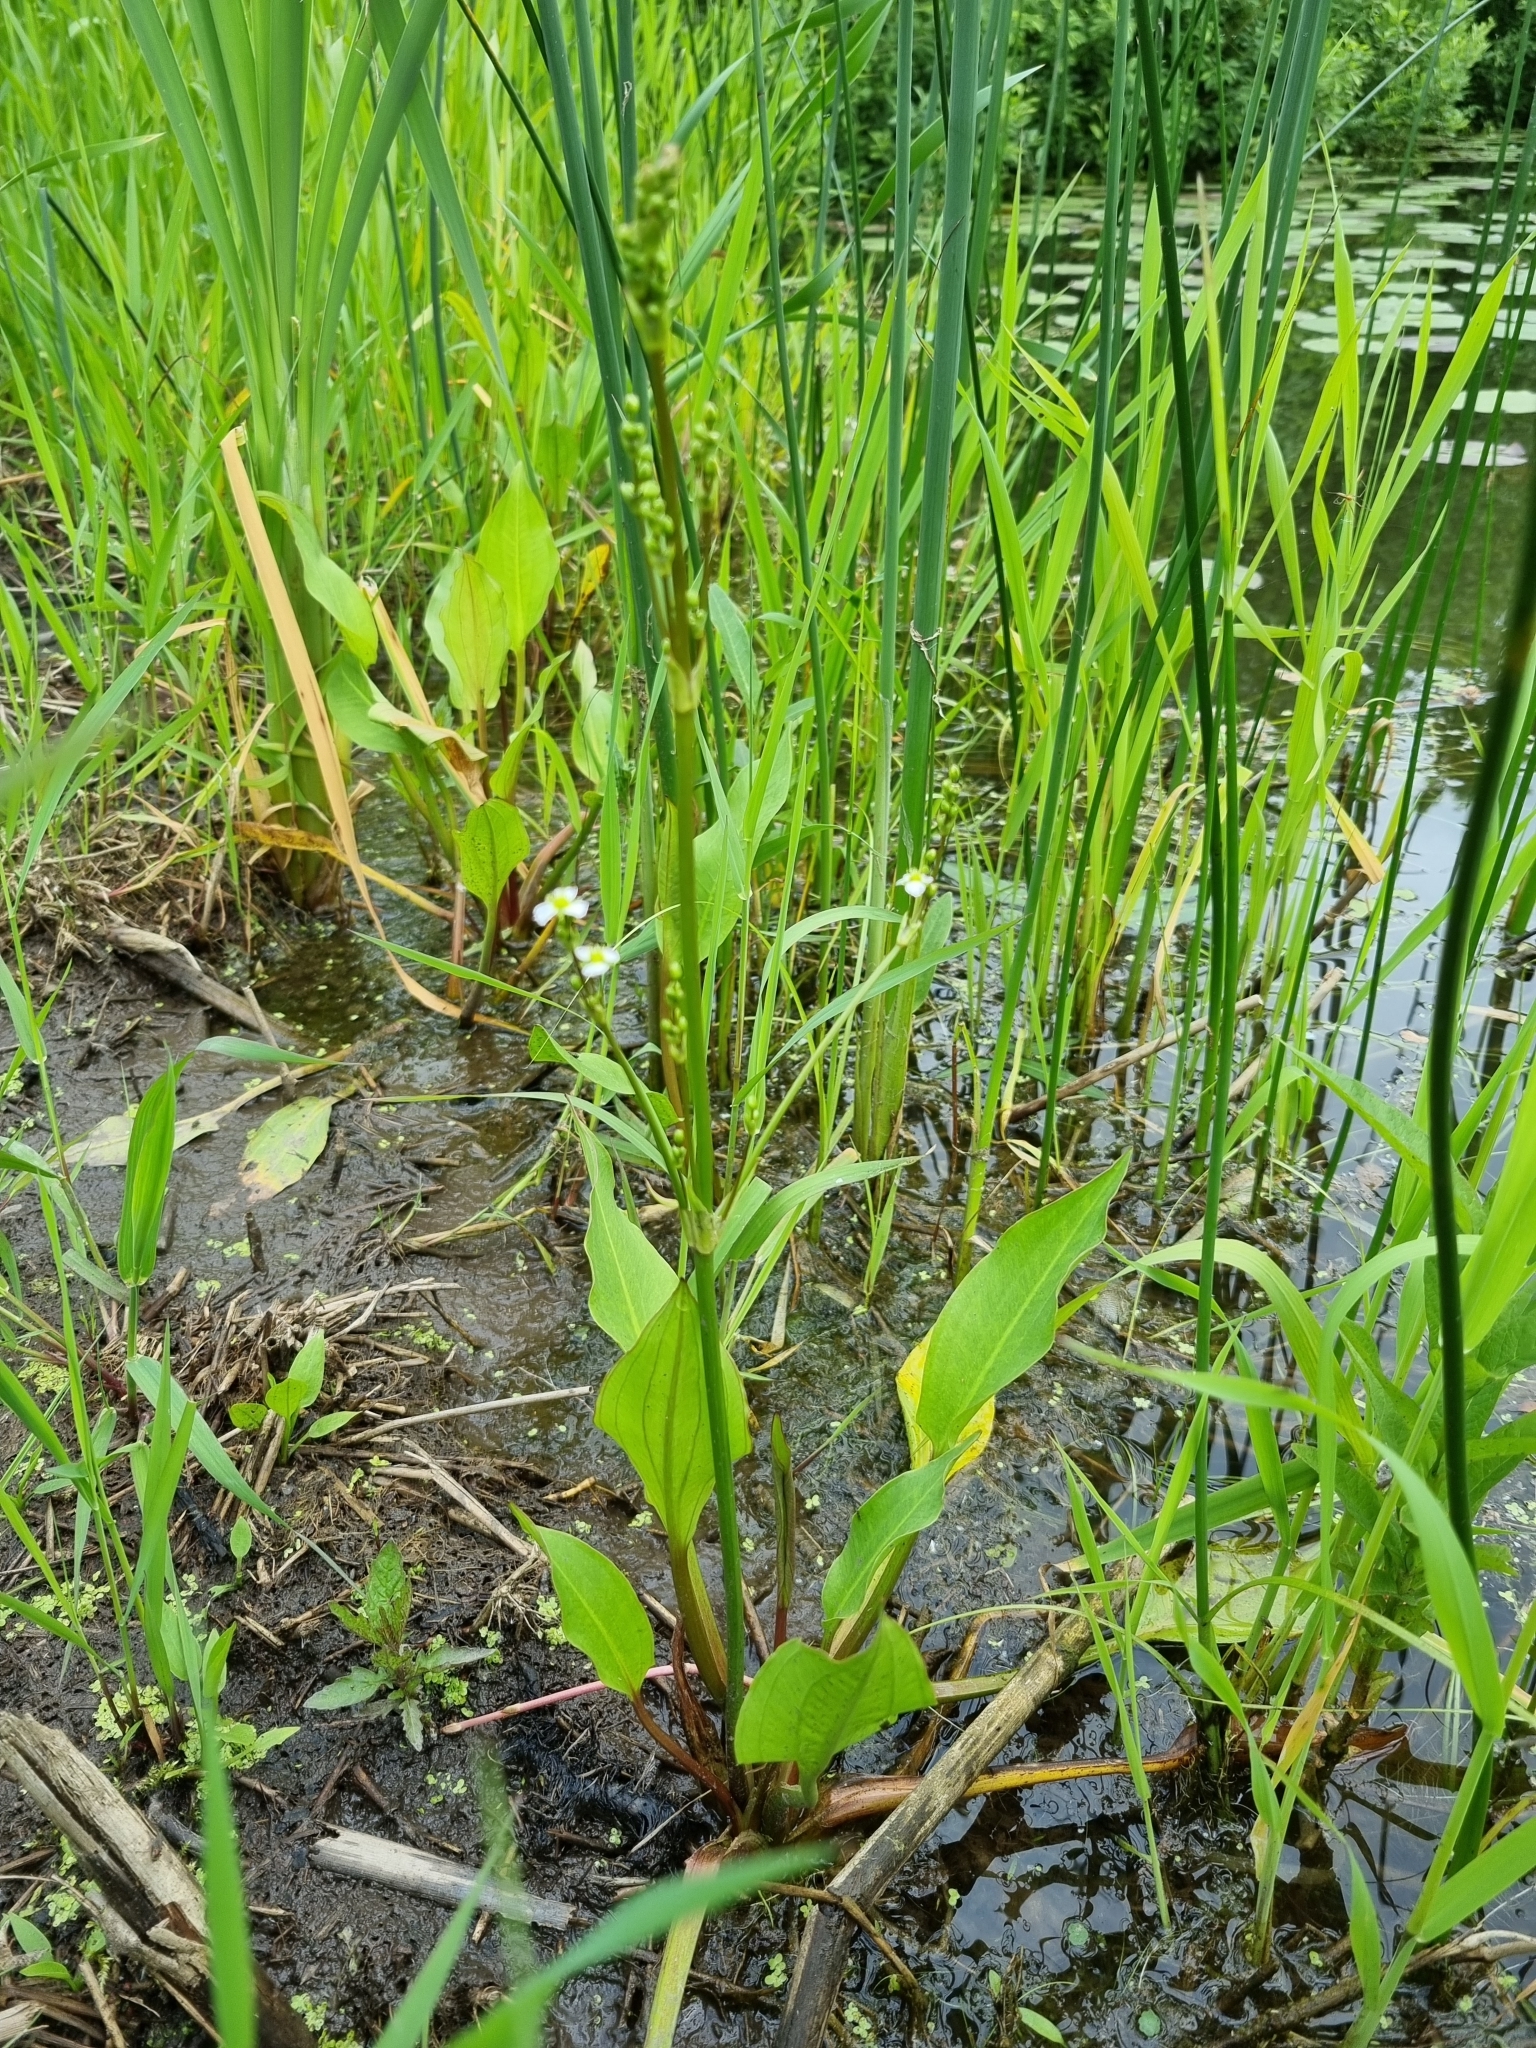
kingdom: Plantae
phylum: Tracheophyta
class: Liliopsida
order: Alismatales
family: Alismataceae
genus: Alisma
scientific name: Alisma plantago-aquatica
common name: Water-plantain
